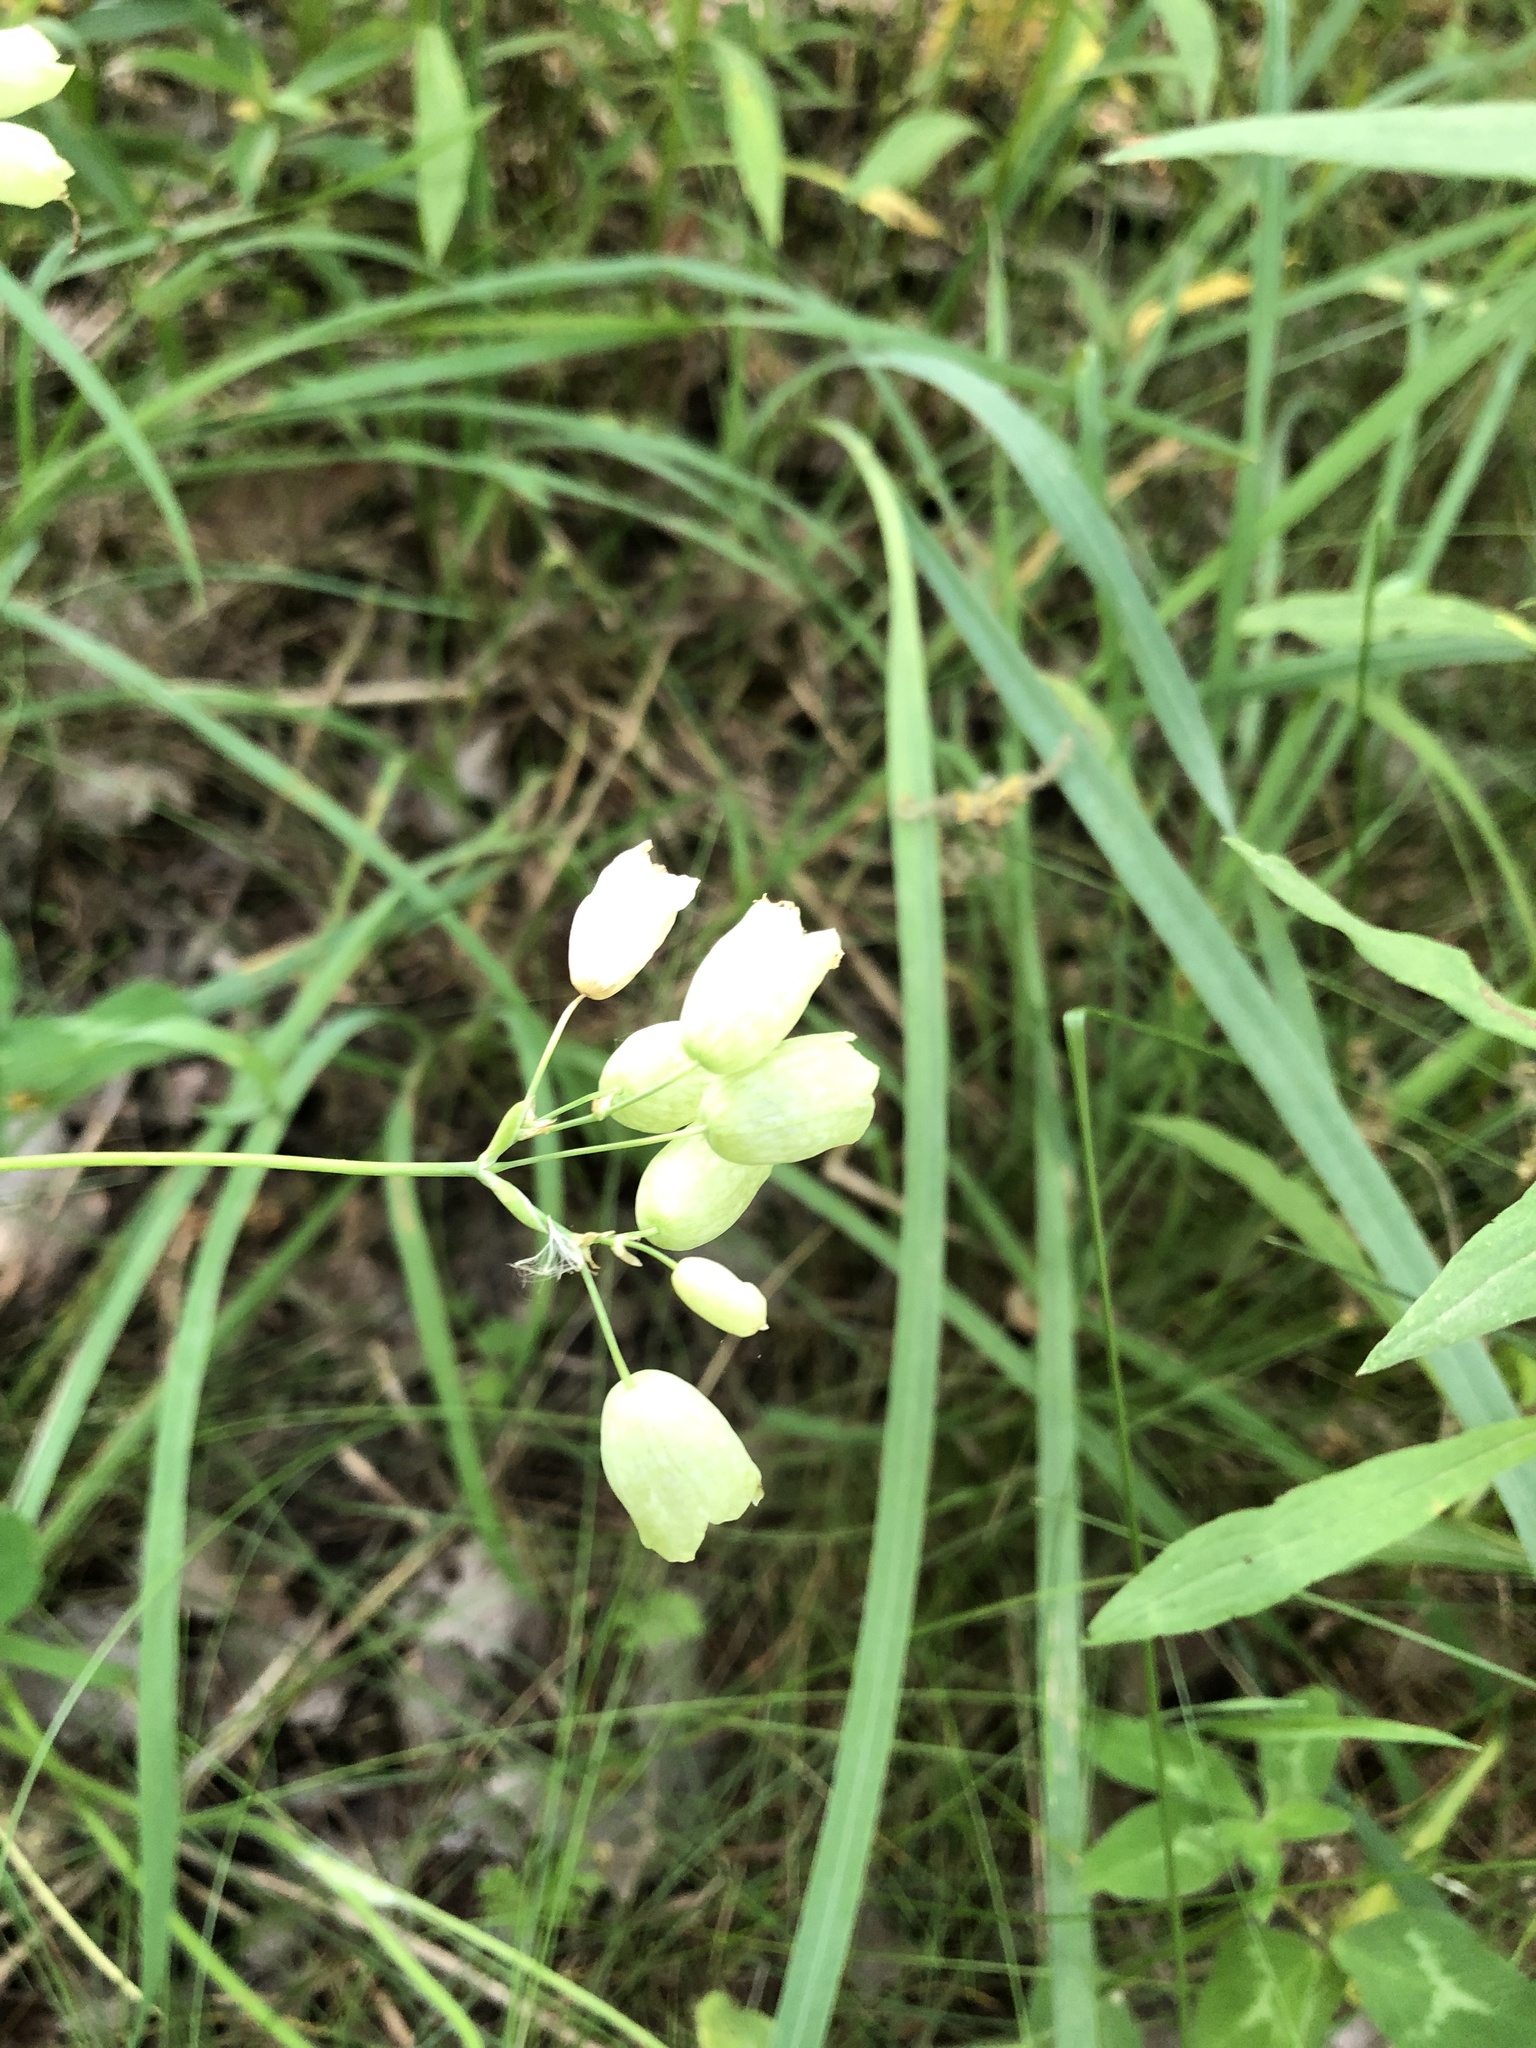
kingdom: Plantae
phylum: Tracheophyta
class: Magnoliopsida
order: Caryophyllales
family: Caryophyllaceae
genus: Silene
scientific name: Silene vulgaris
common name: Bladder campion
